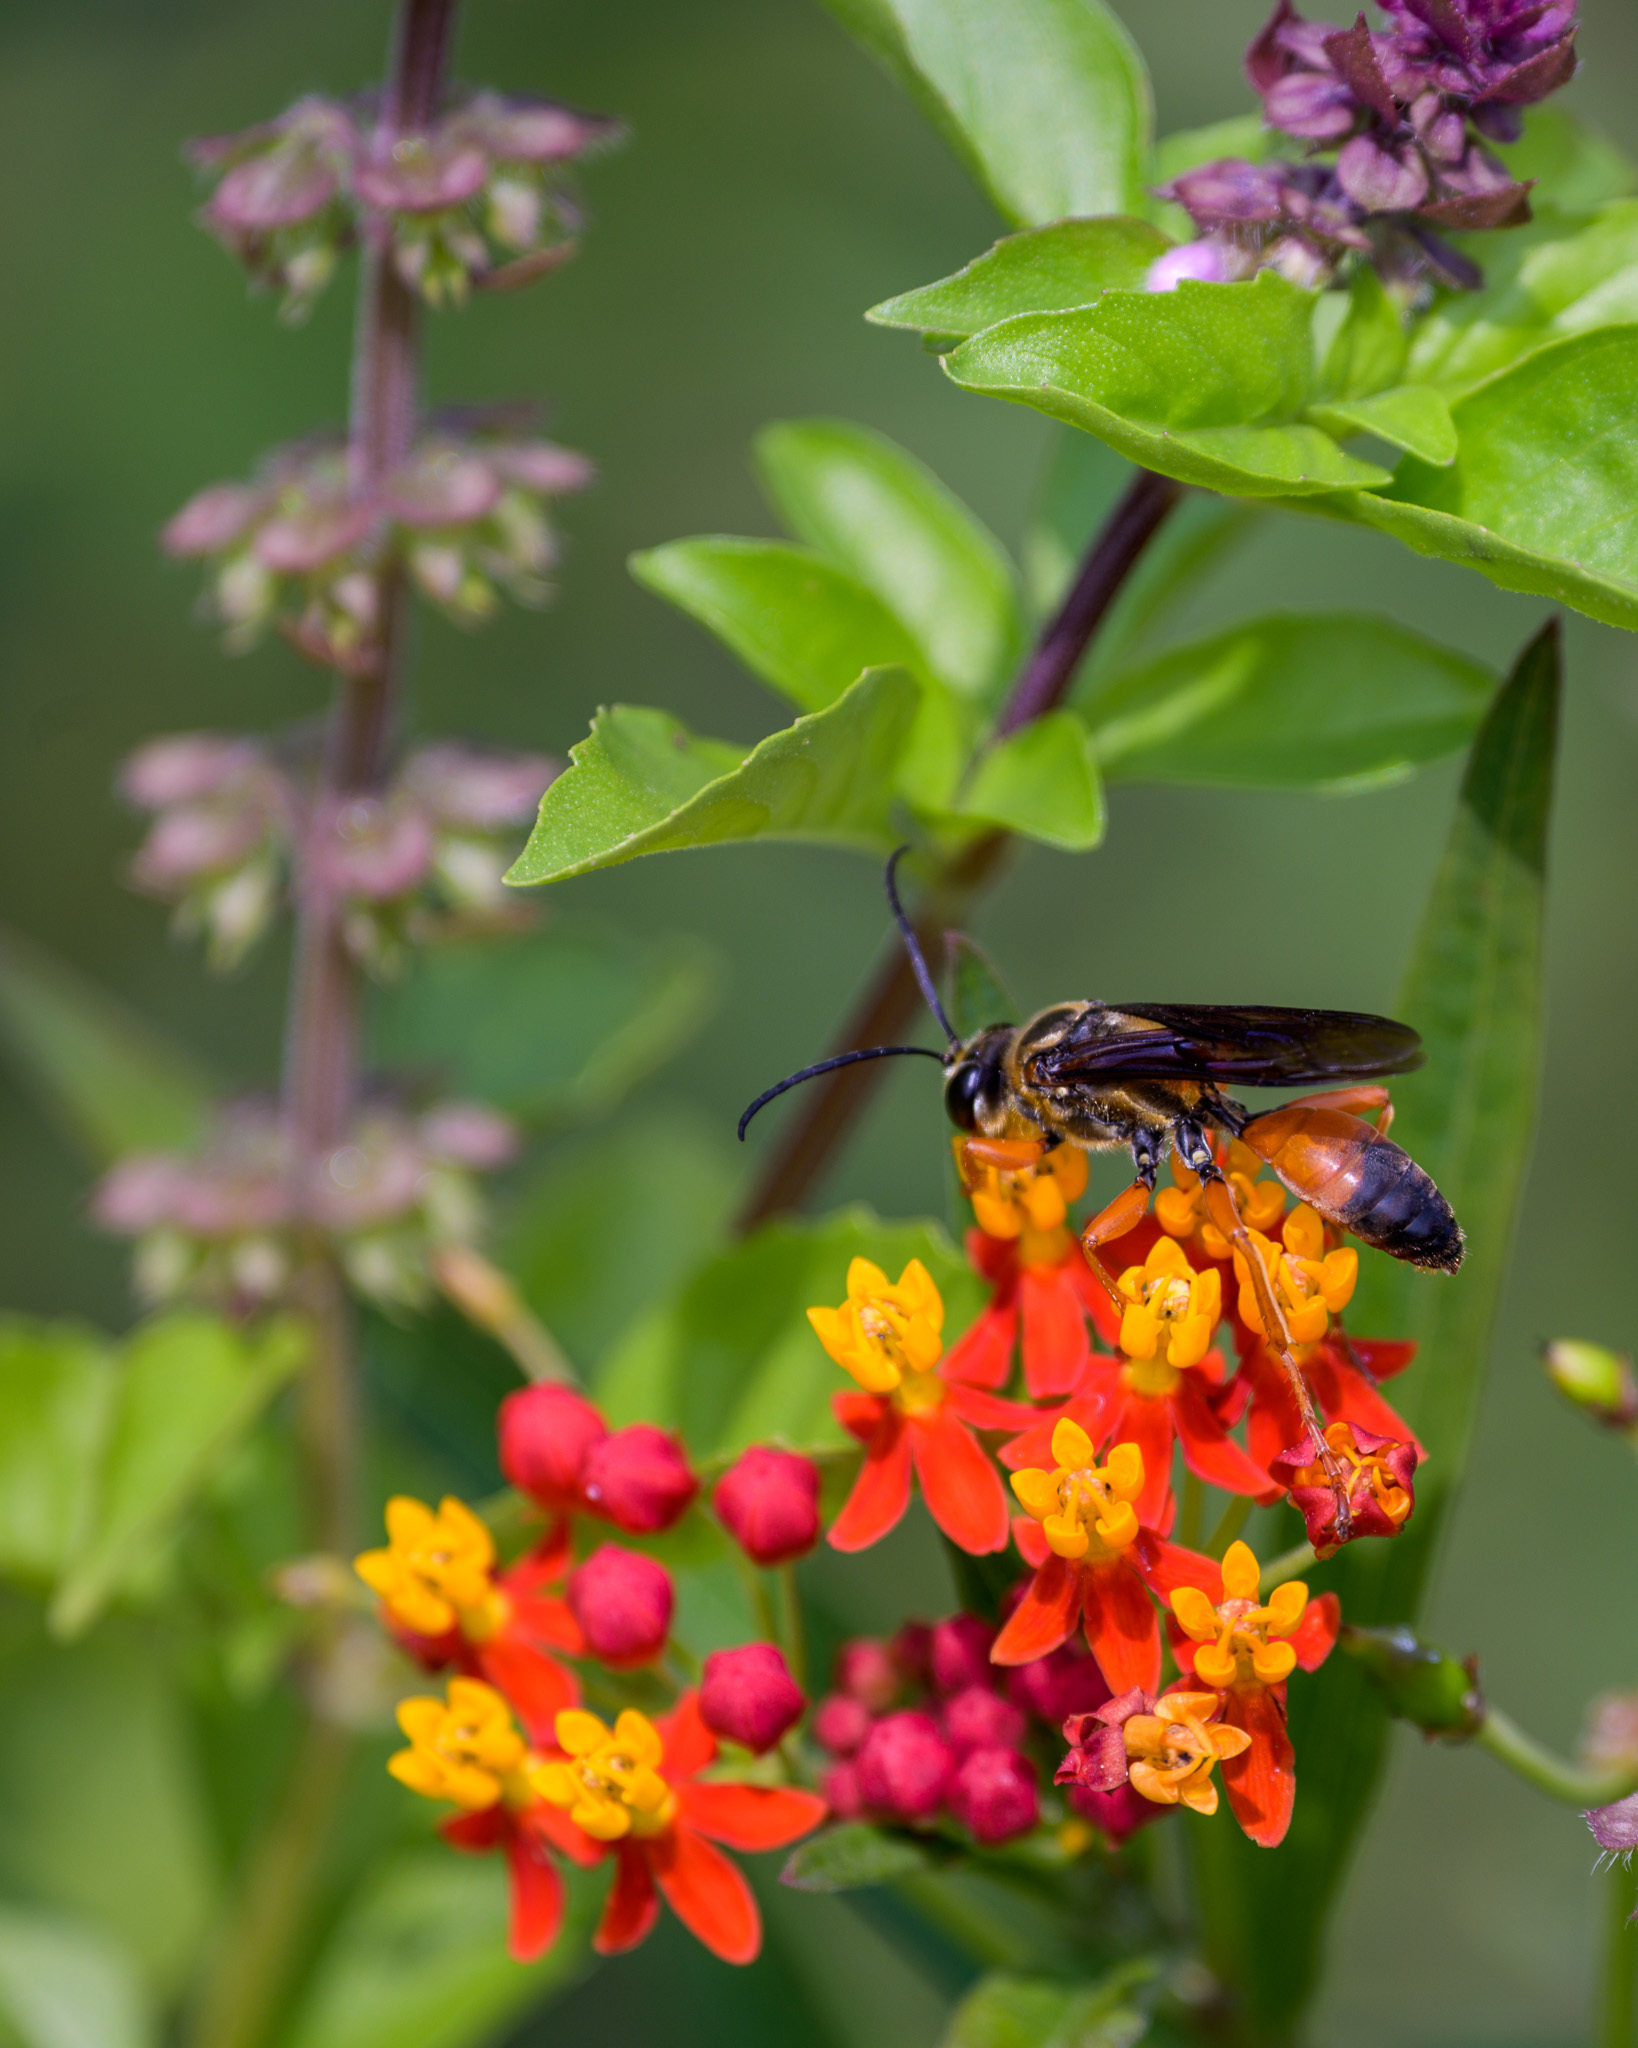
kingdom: Animalia
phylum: Arthropoda
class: Insecta
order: Hymenoptera
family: Sphecidae
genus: Sphex
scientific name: Sphex ichneumoneus
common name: Great golden digger wasp
